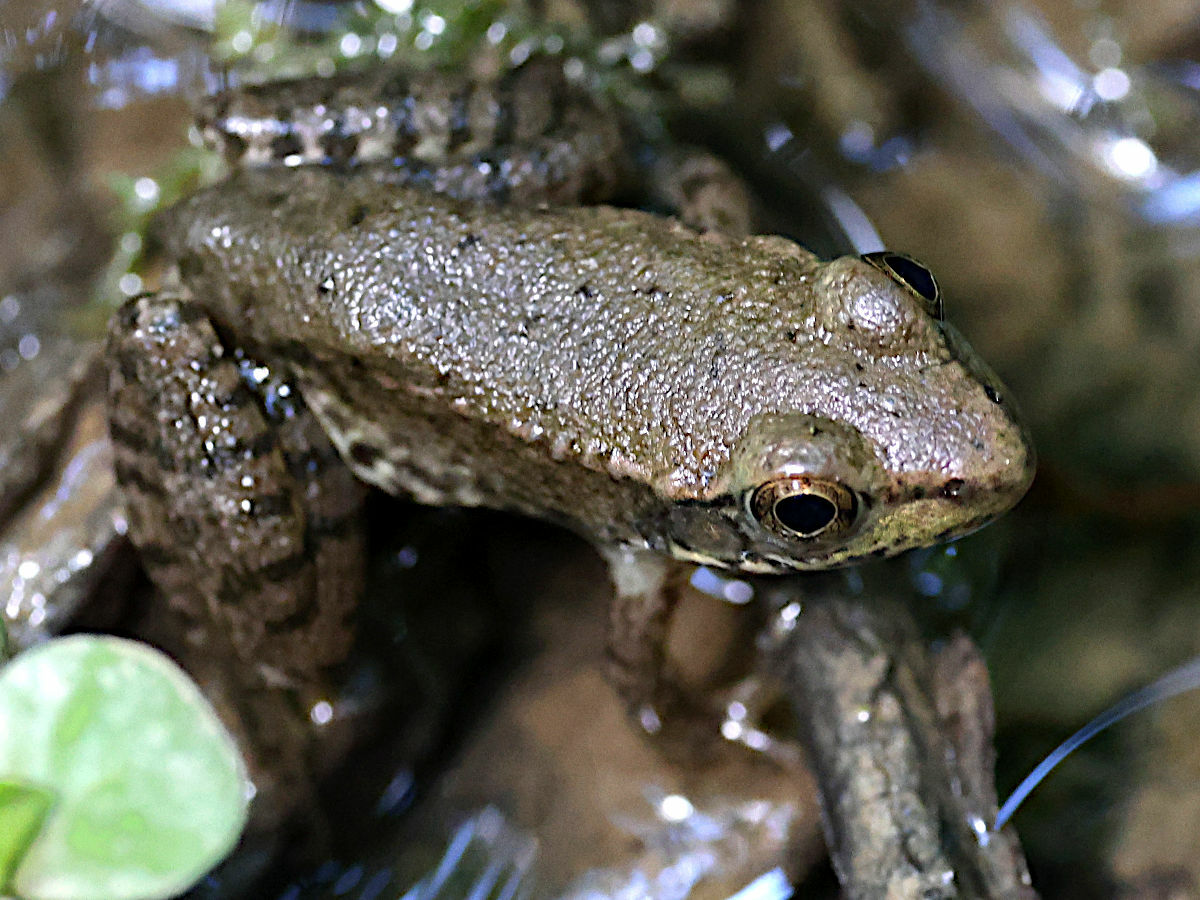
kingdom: Animalia
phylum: Chordata
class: Amphibia
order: Anura
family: Ranidae
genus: Lithobates
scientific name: Lithobates clamitans
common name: Green frog
